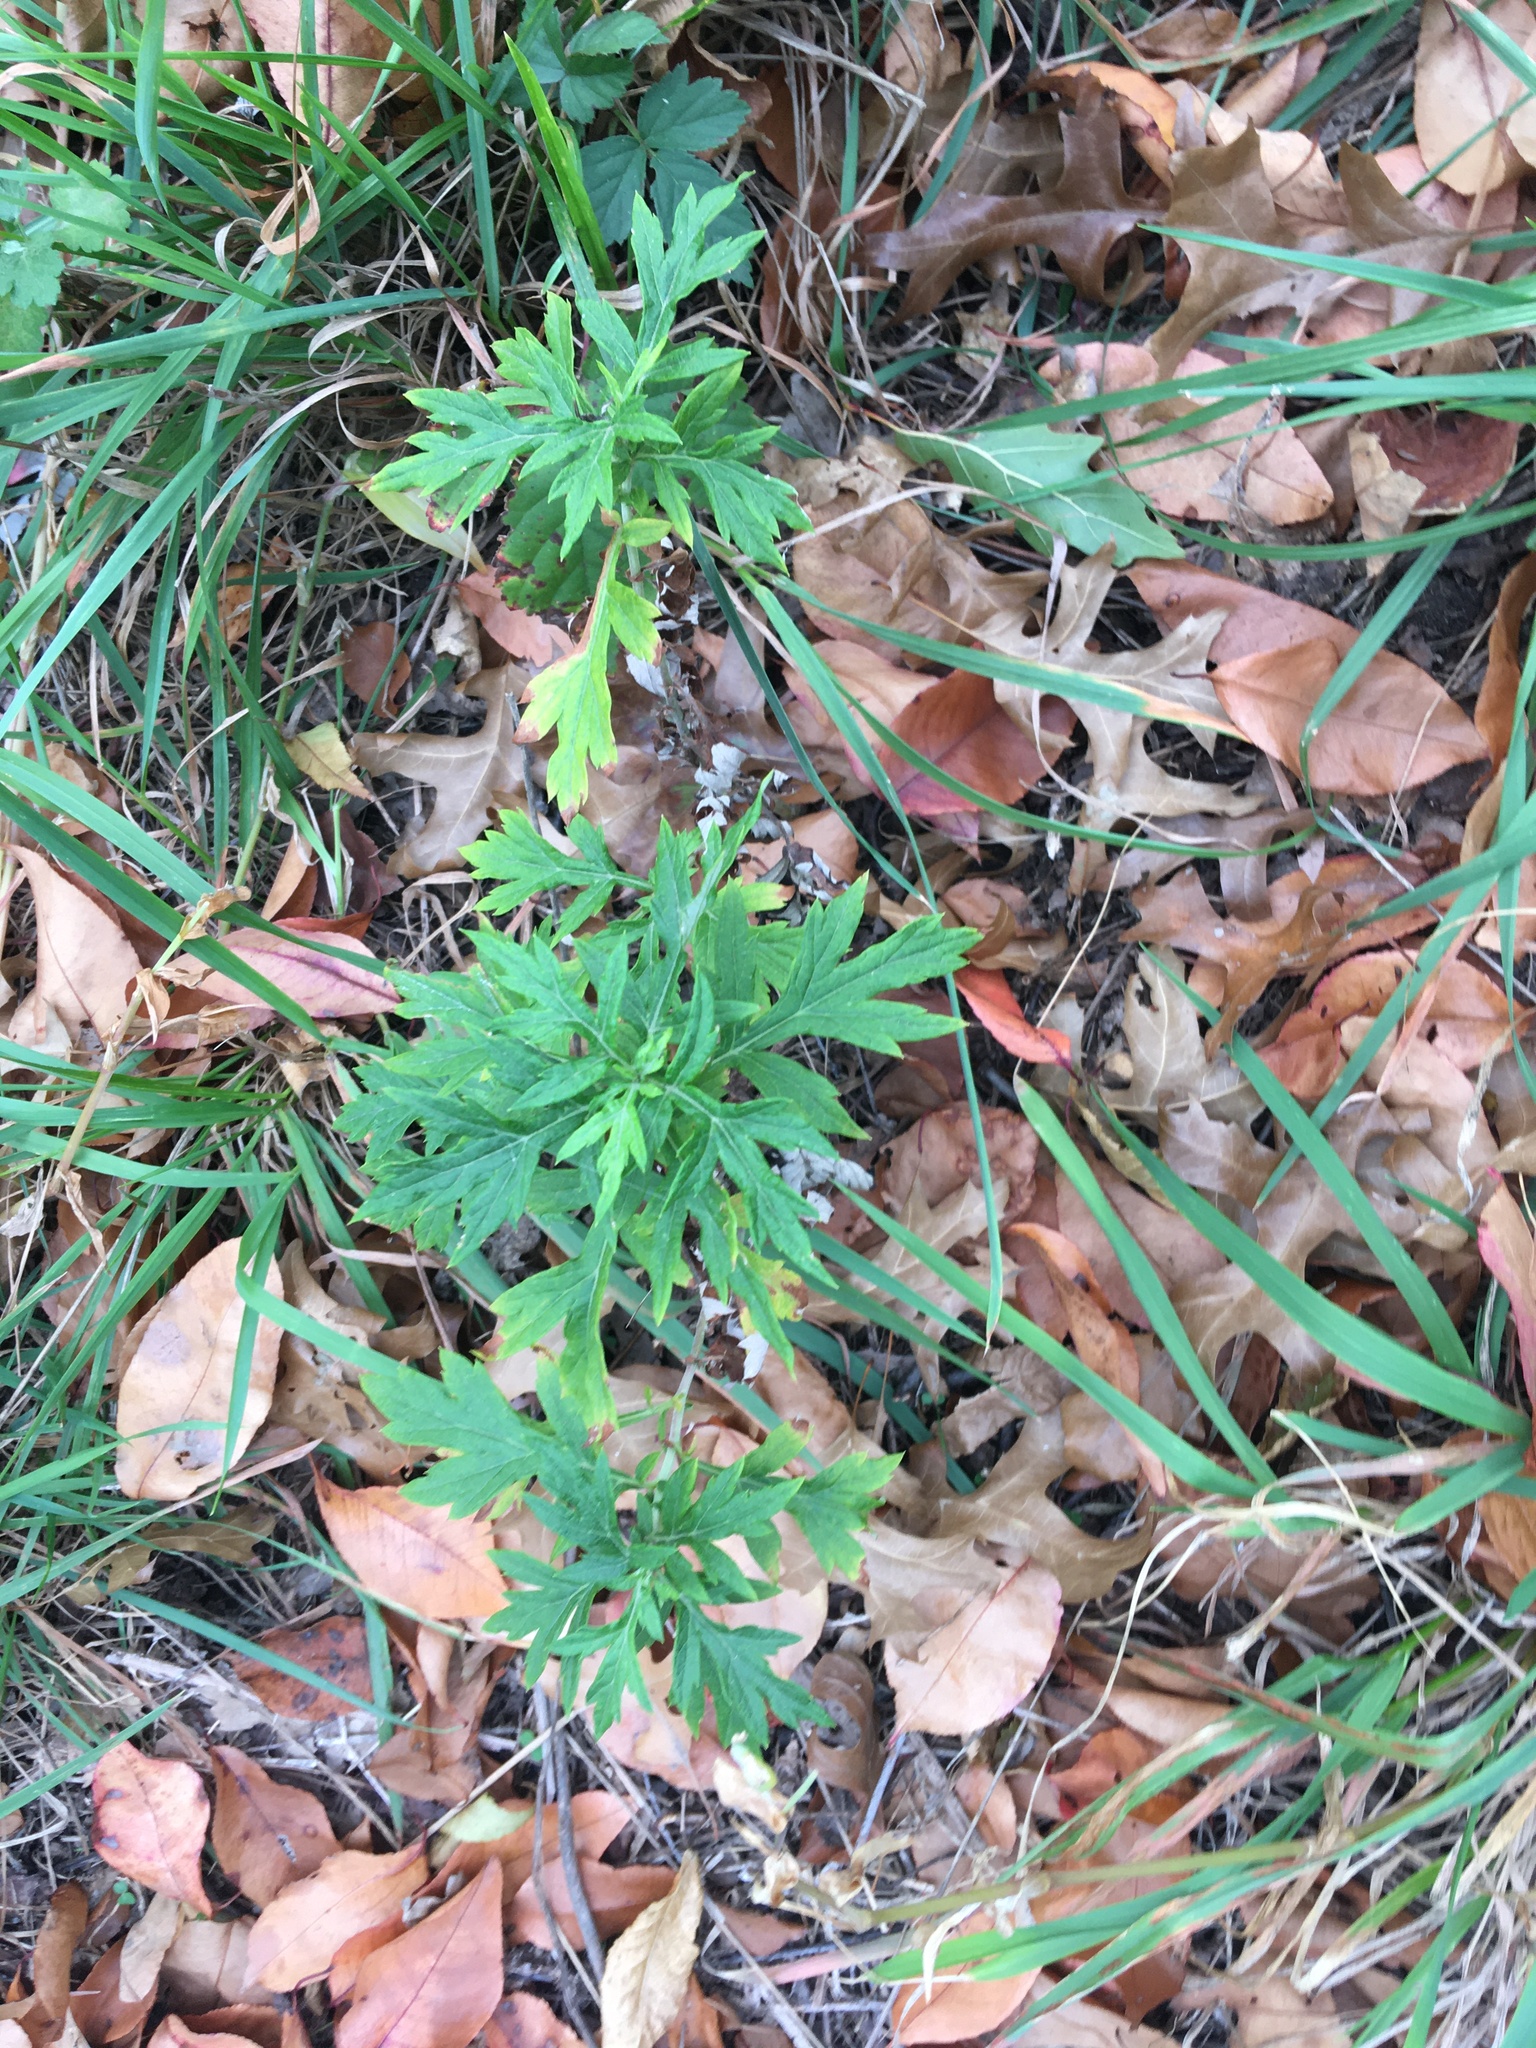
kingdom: Plantae
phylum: Tracheophyta
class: Magnoliopsida
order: Asterales
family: Asteraceae
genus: Artemisia
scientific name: Artemisia vulgaris
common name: Mugwort
